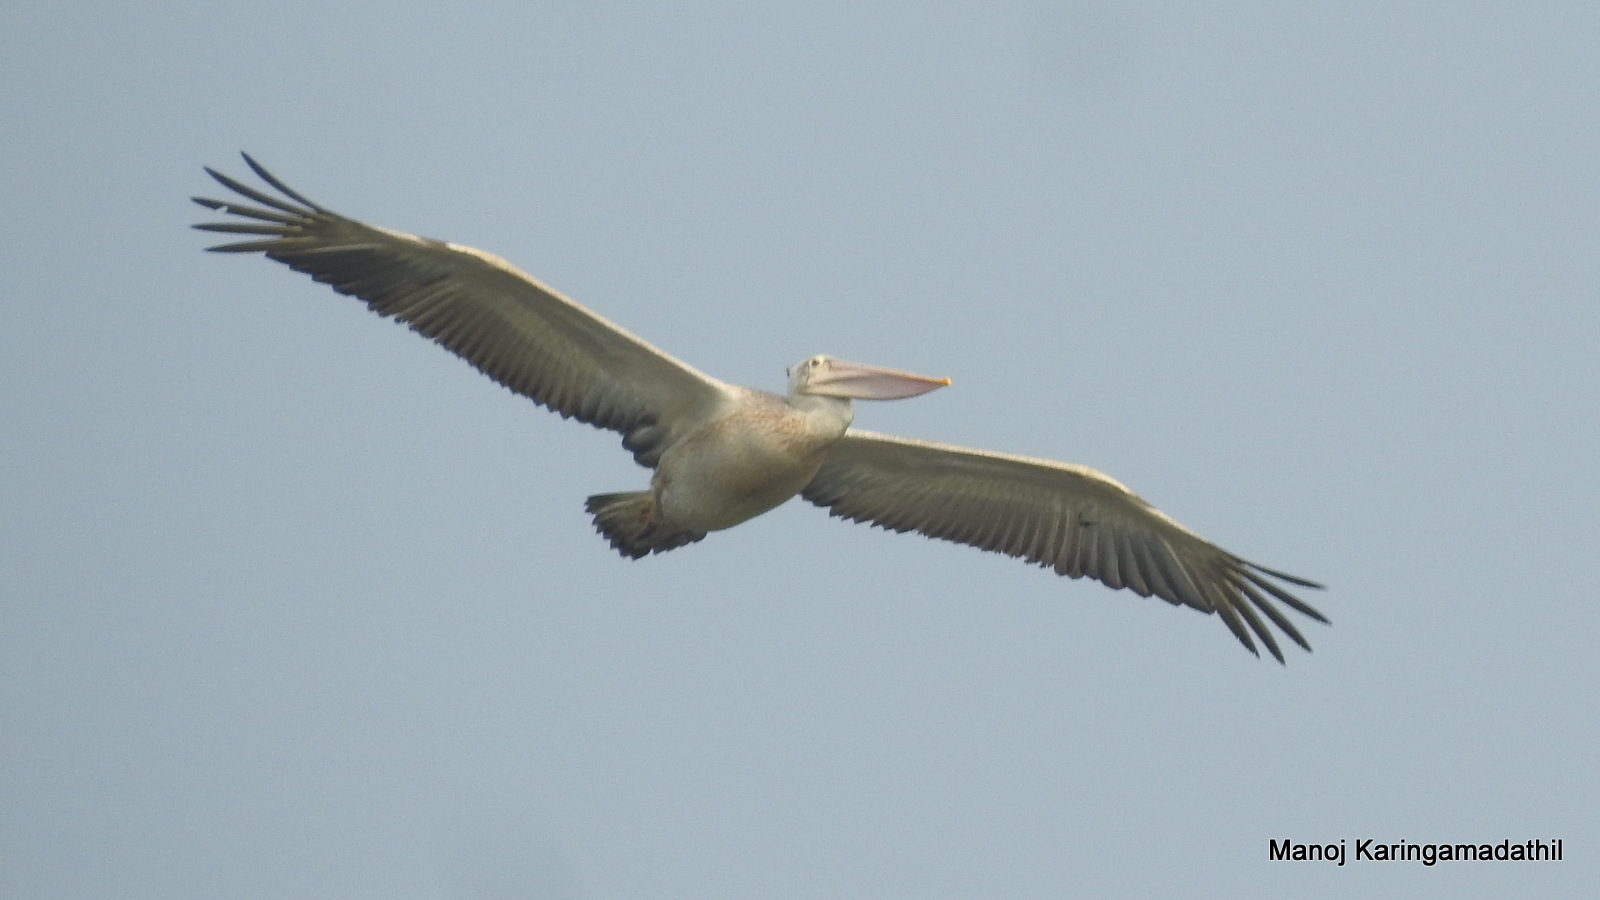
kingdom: Animalia
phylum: Chordata
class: Aves
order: Pelecaniformes
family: Pelecanidae
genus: Pelecanus
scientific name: Pelecanus philippensis
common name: Spot-billed pelican
